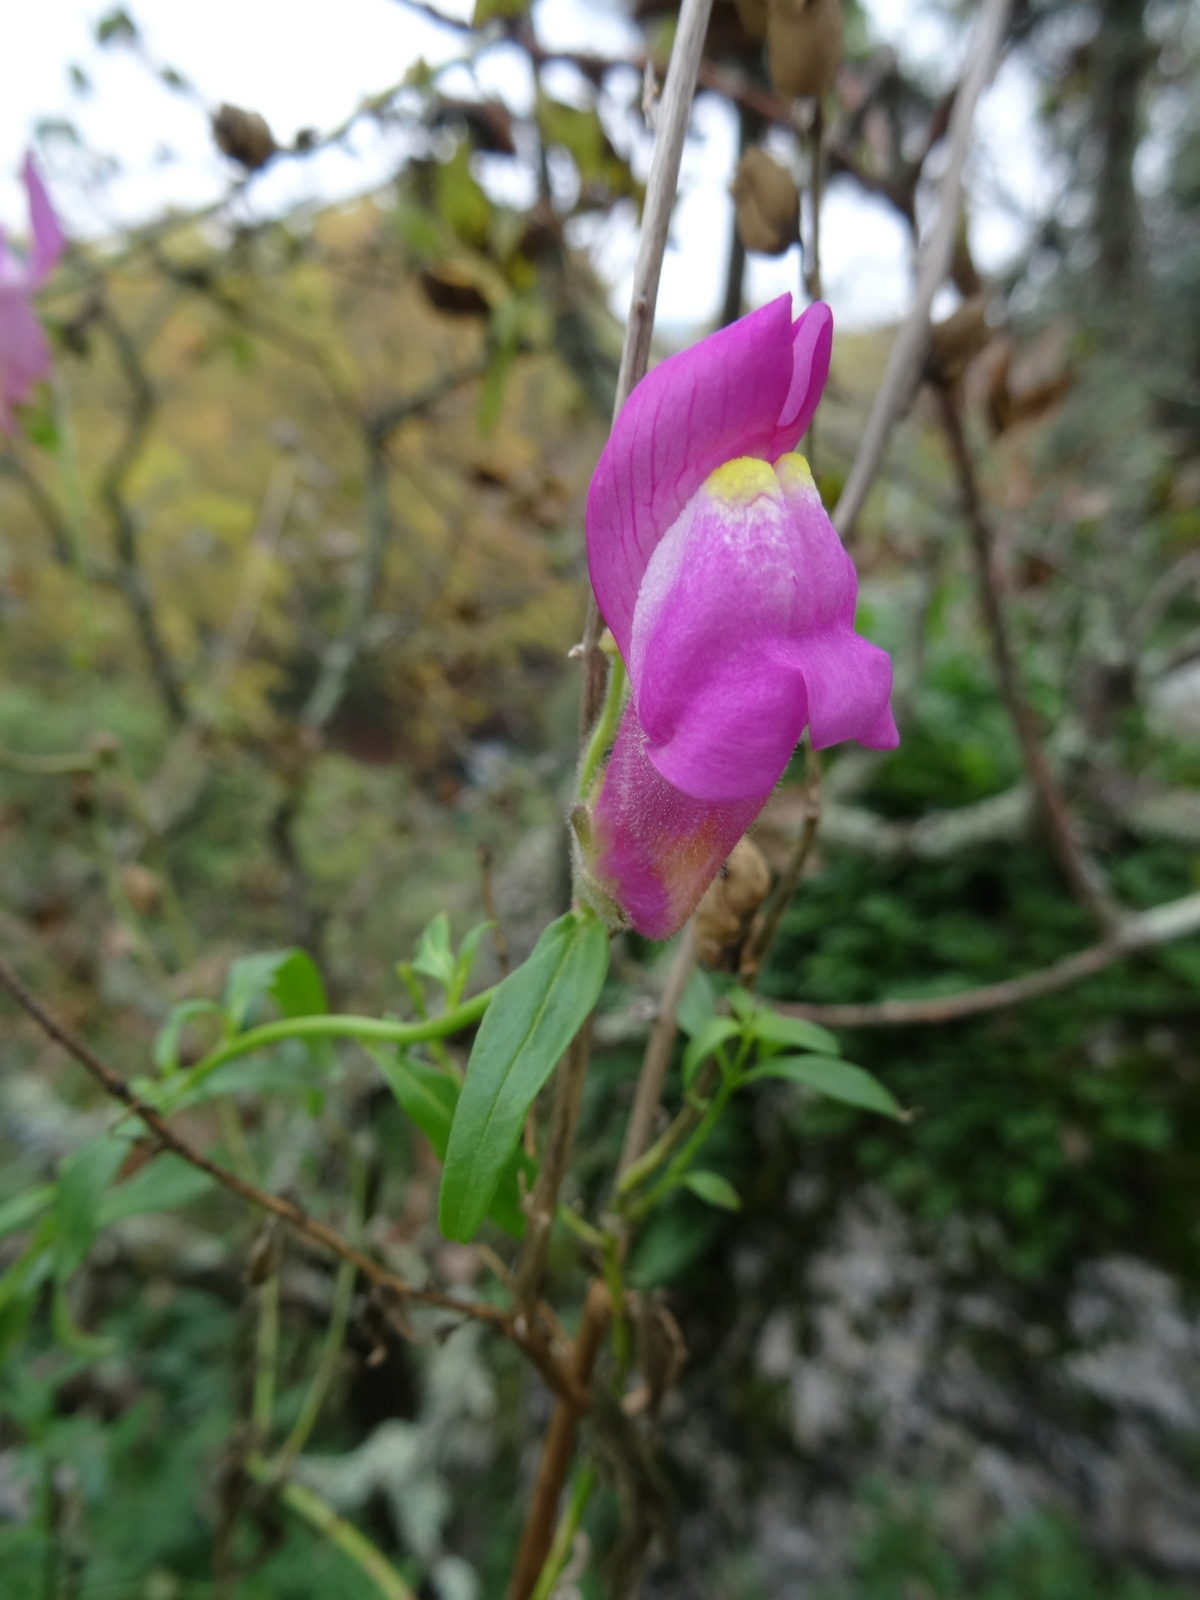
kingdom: Plantae
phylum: Tracheophyta
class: Magnoliopsida
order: Lamiales
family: Plantaginaceae
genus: Antirrhinum
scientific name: Antirrhinum majus
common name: Snapdragon
